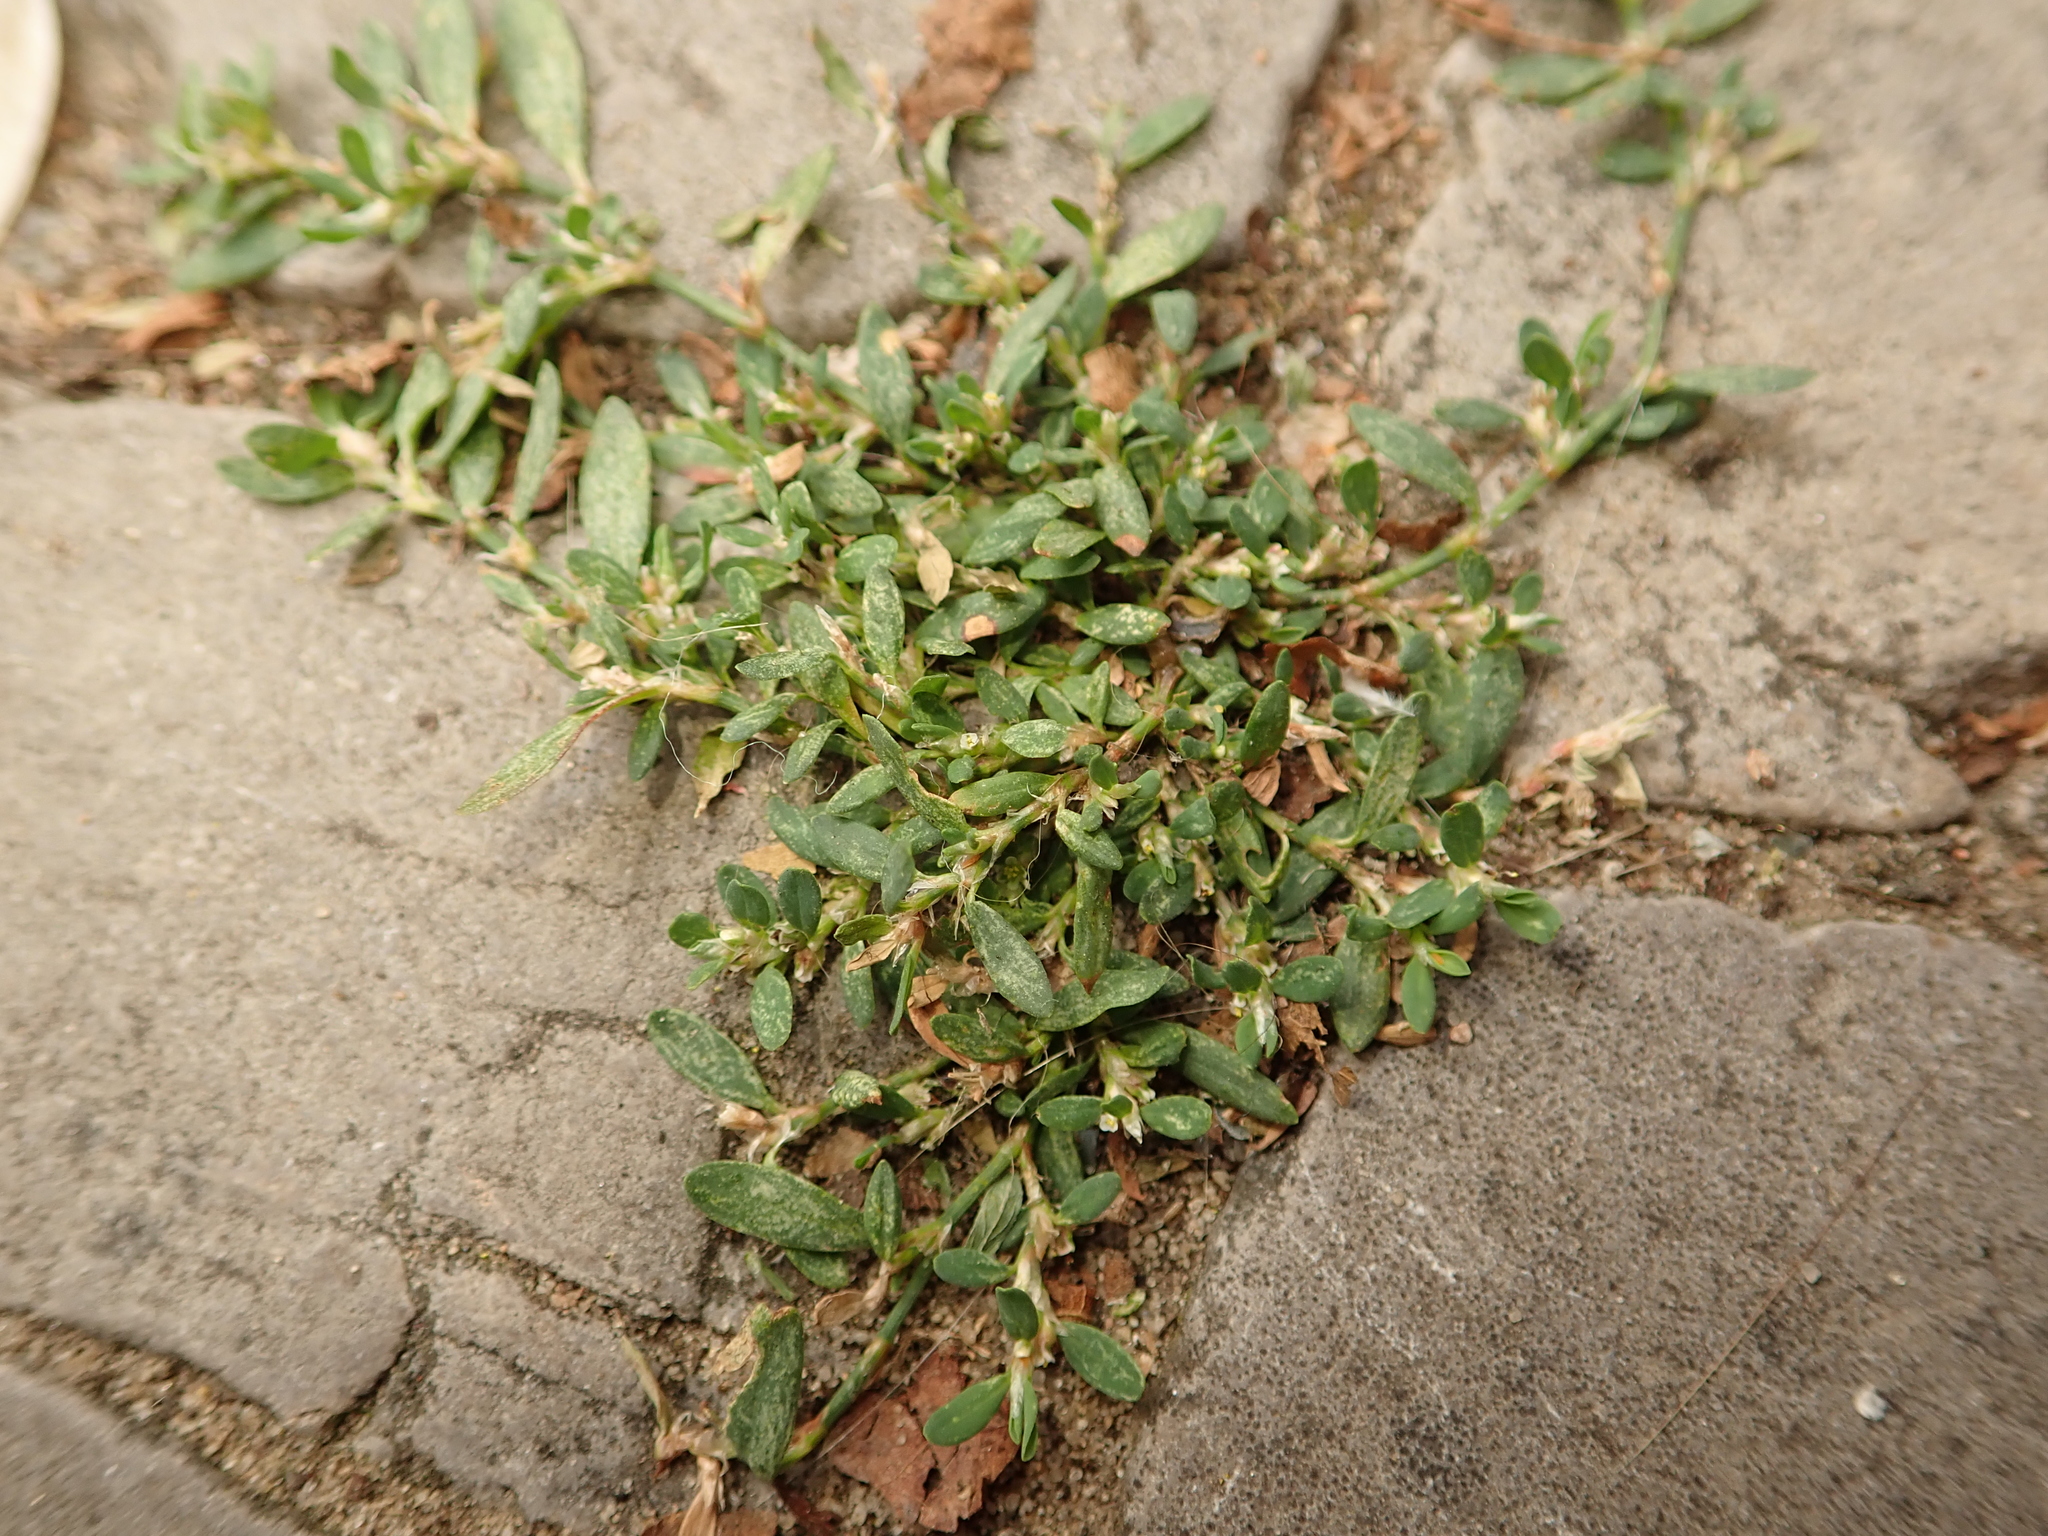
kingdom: Plantae
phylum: Tracheophyta
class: Magnoliopsida
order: Caryophyllales
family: Polygonaceae
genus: Polygonum
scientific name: Polygonum aviculare
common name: Prostrate knotweed
